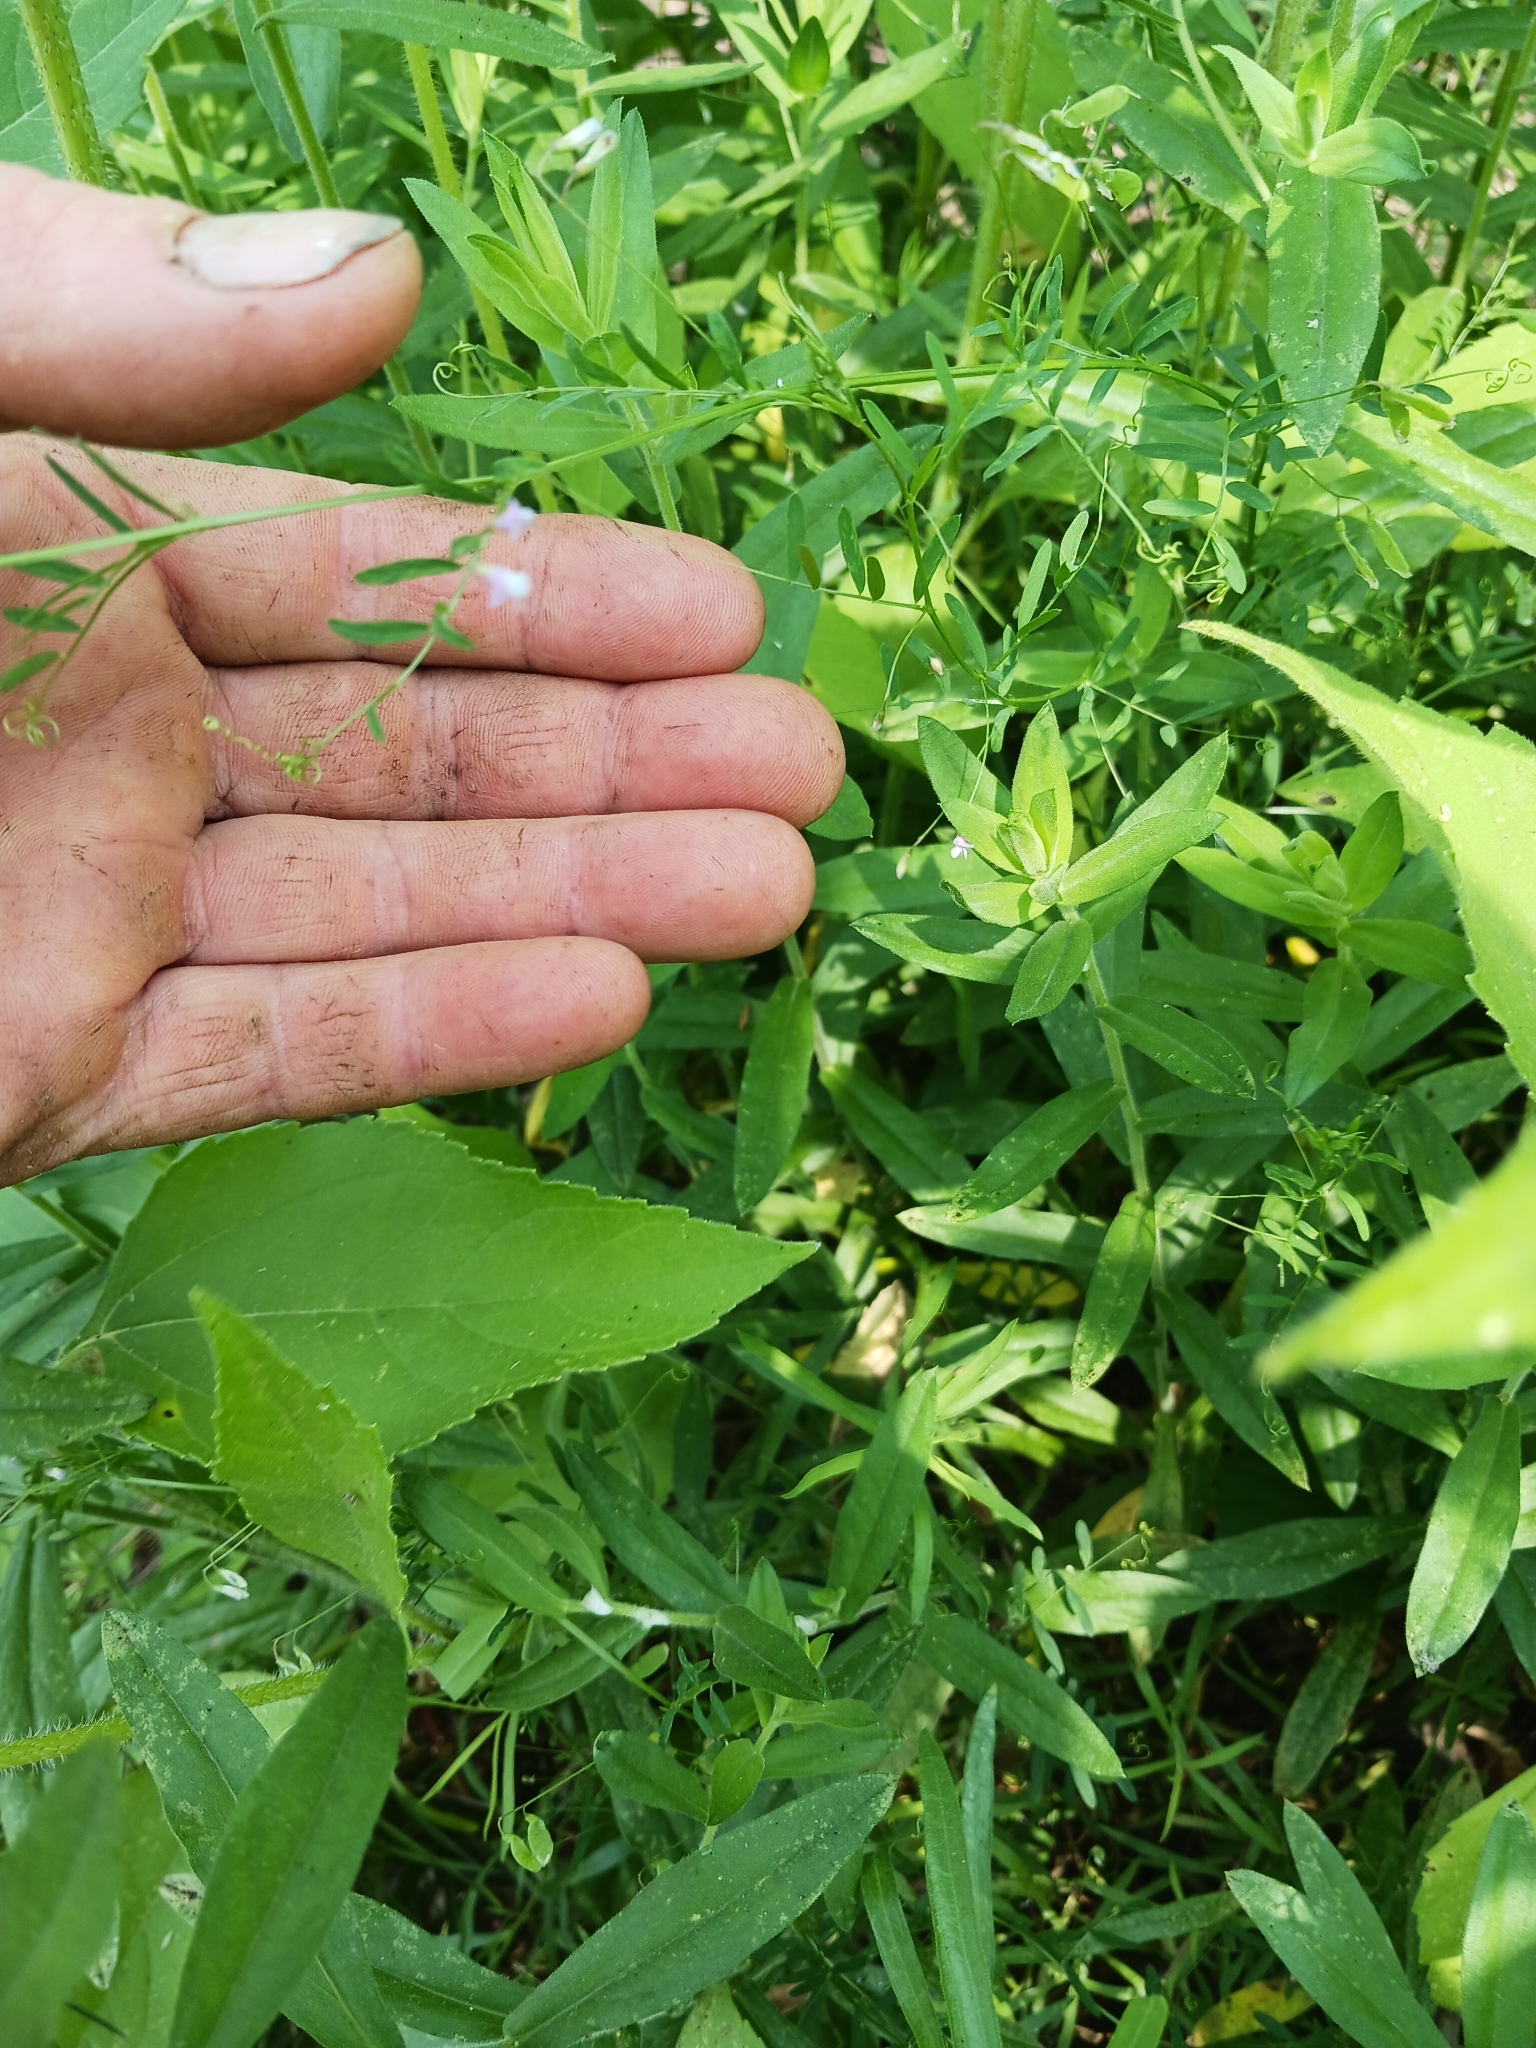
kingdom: Plantae
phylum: Tracheophyta
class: Magnoliopsida
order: Fabales
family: Fabaceae
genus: Vicia
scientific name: Vicia tetrasperma
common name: Smooth tare
